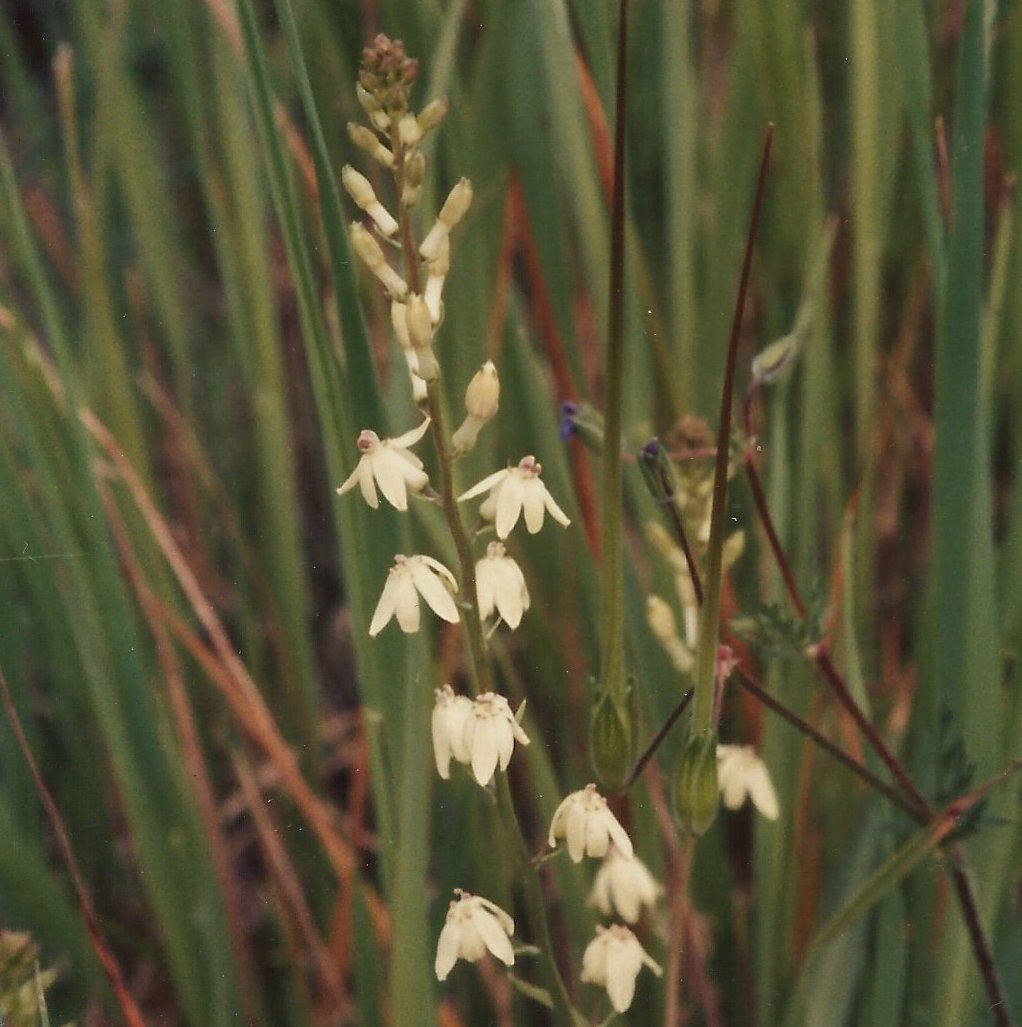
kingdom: Plantae
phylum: Tracheophyta
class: Liliopsida
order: Asparagales
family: Tecophilaeaceae
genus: Odontostomum
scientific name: Odontostomum hartwegii
